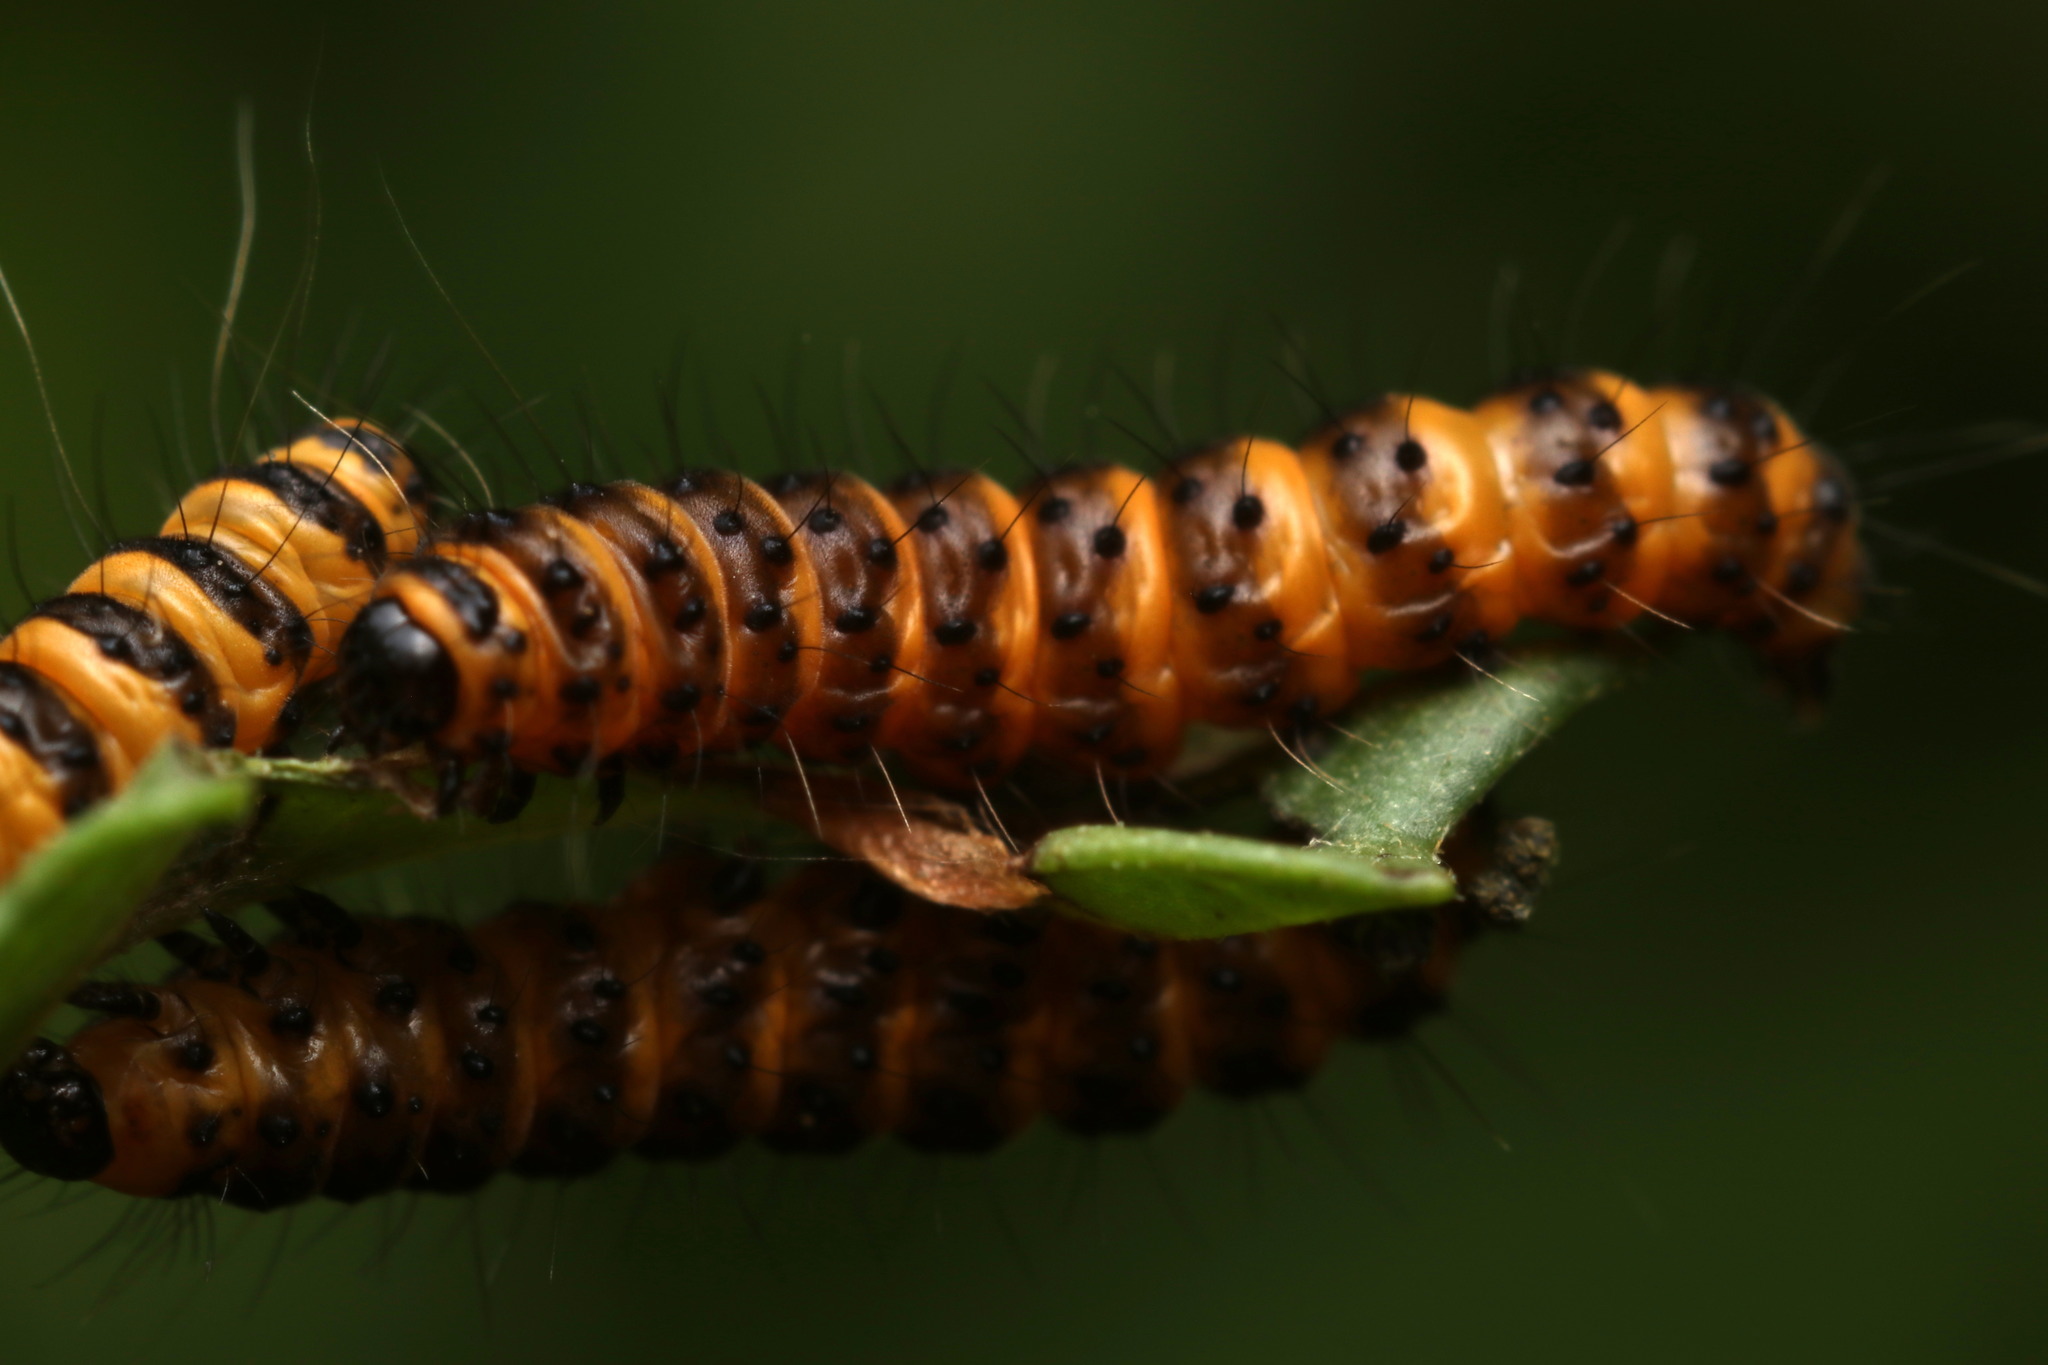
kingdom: Animalia
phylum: Arthropoda
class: Insecta
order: Lepidoptera
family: Erebidae
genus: Tyria
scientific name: Tyria jacobaeae
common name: Cinnabar
